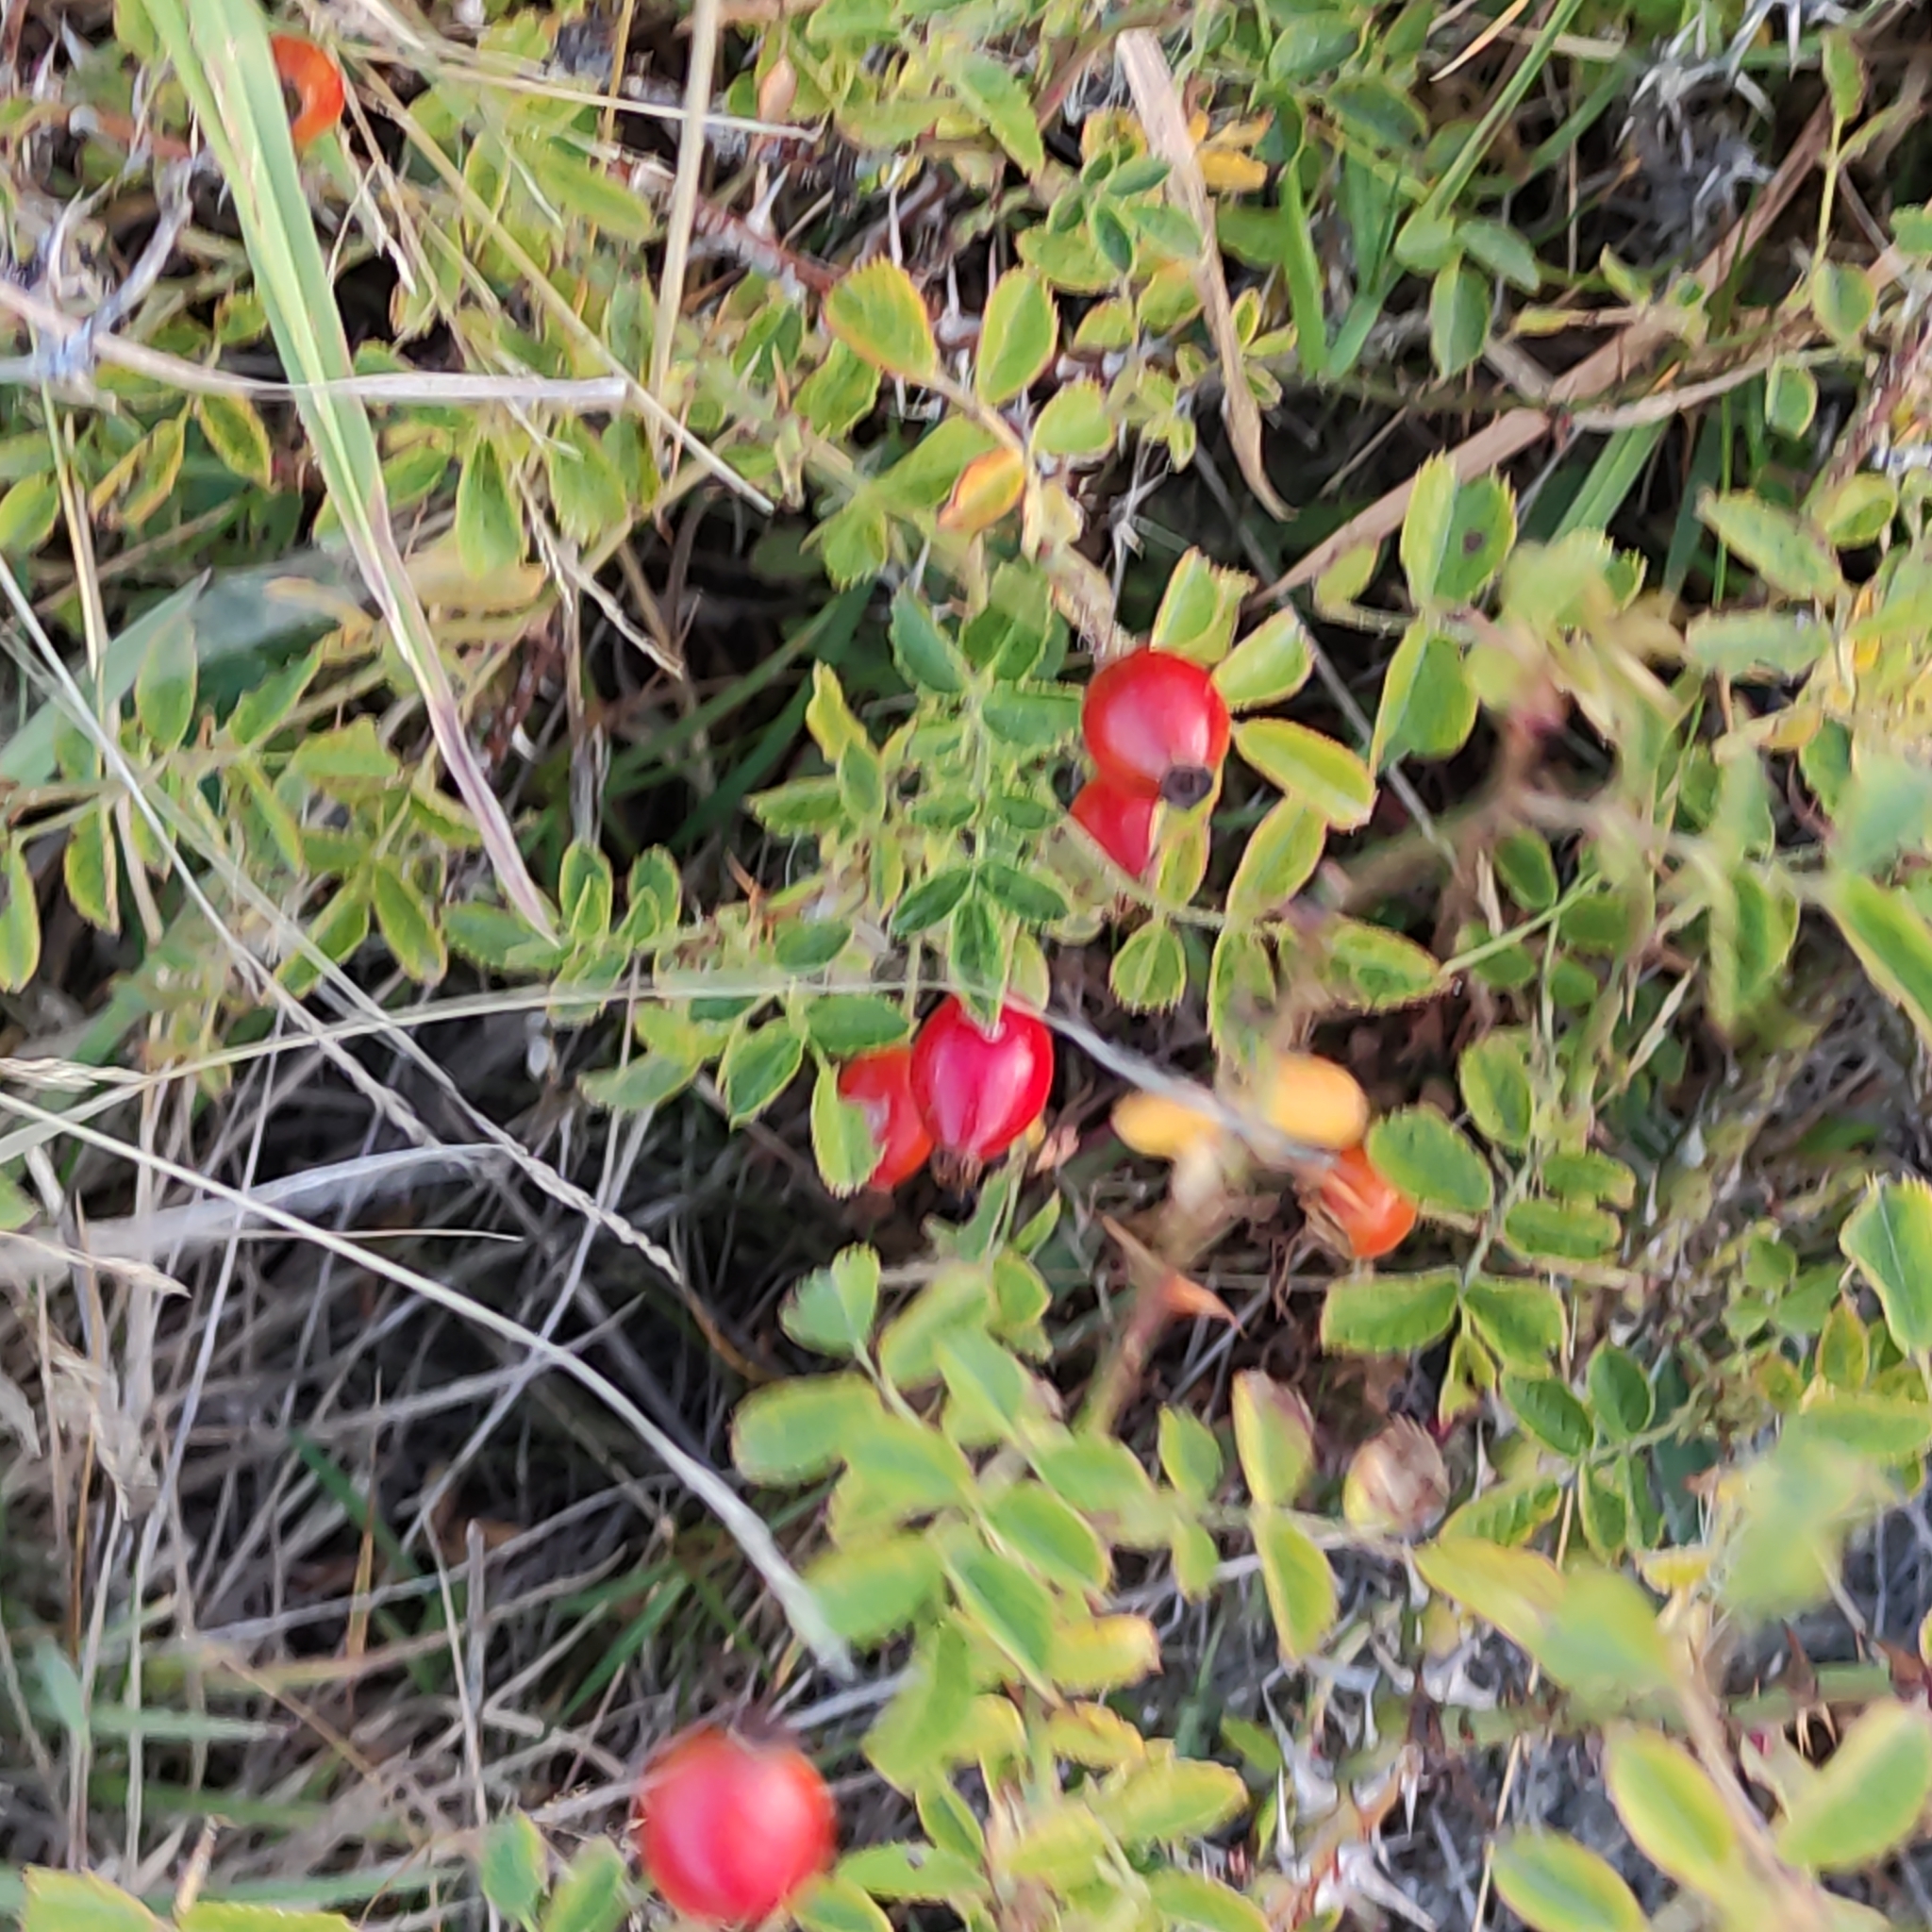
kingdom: Plantae
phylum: Tracheophyta
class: Magnoliopsida
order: Rosales
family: Rosaceae
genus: Rosa
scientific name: Rosa rubiginosa
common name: Sweet-briar
